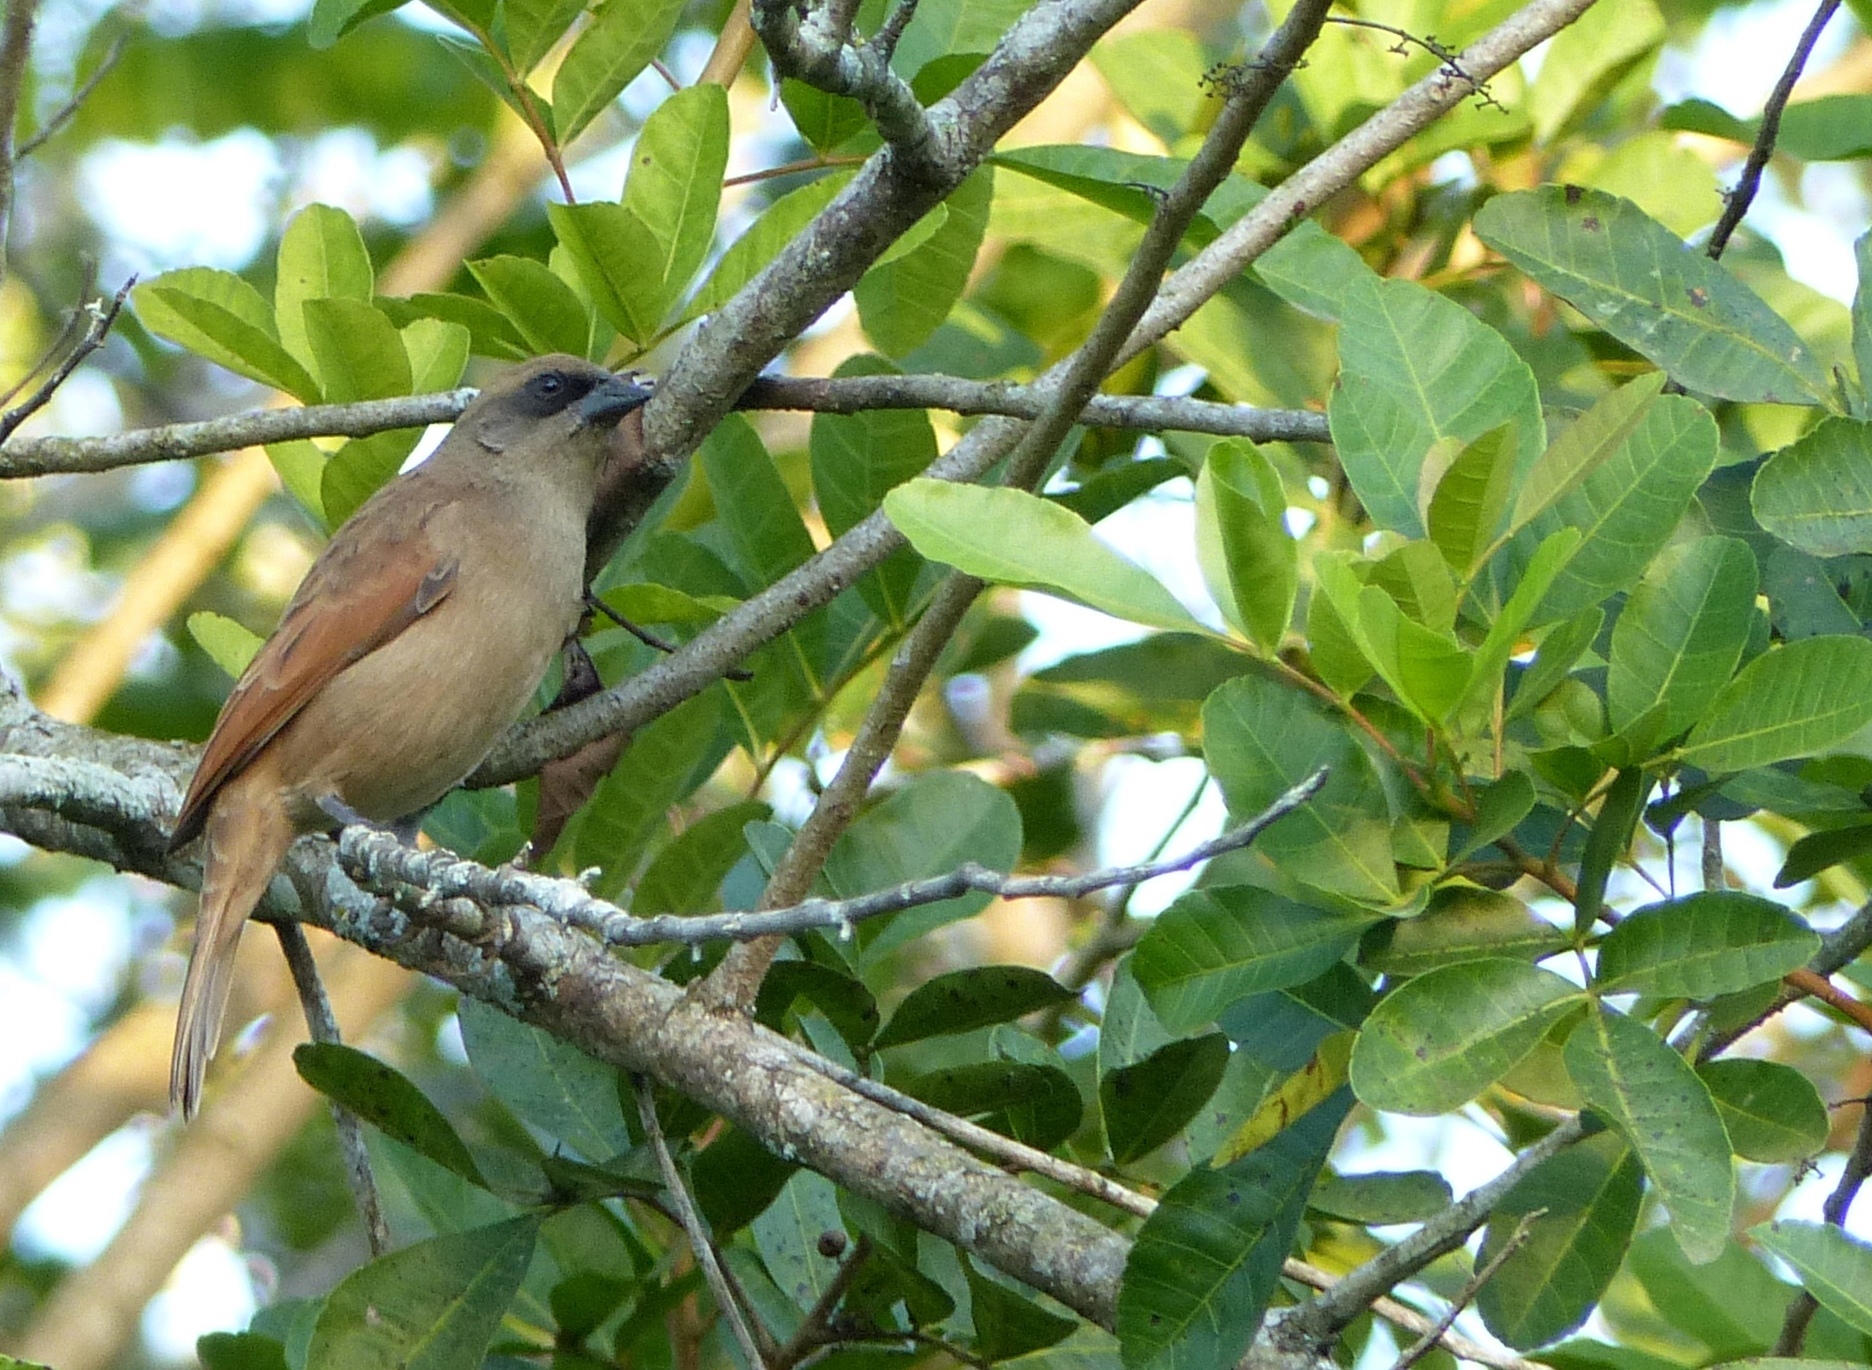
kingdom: Animalia
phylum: Chordata
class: Aves
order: Passeriformes
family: Icteridae
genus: Agelaioides
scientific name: Agelaioides badius
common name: Baywing
